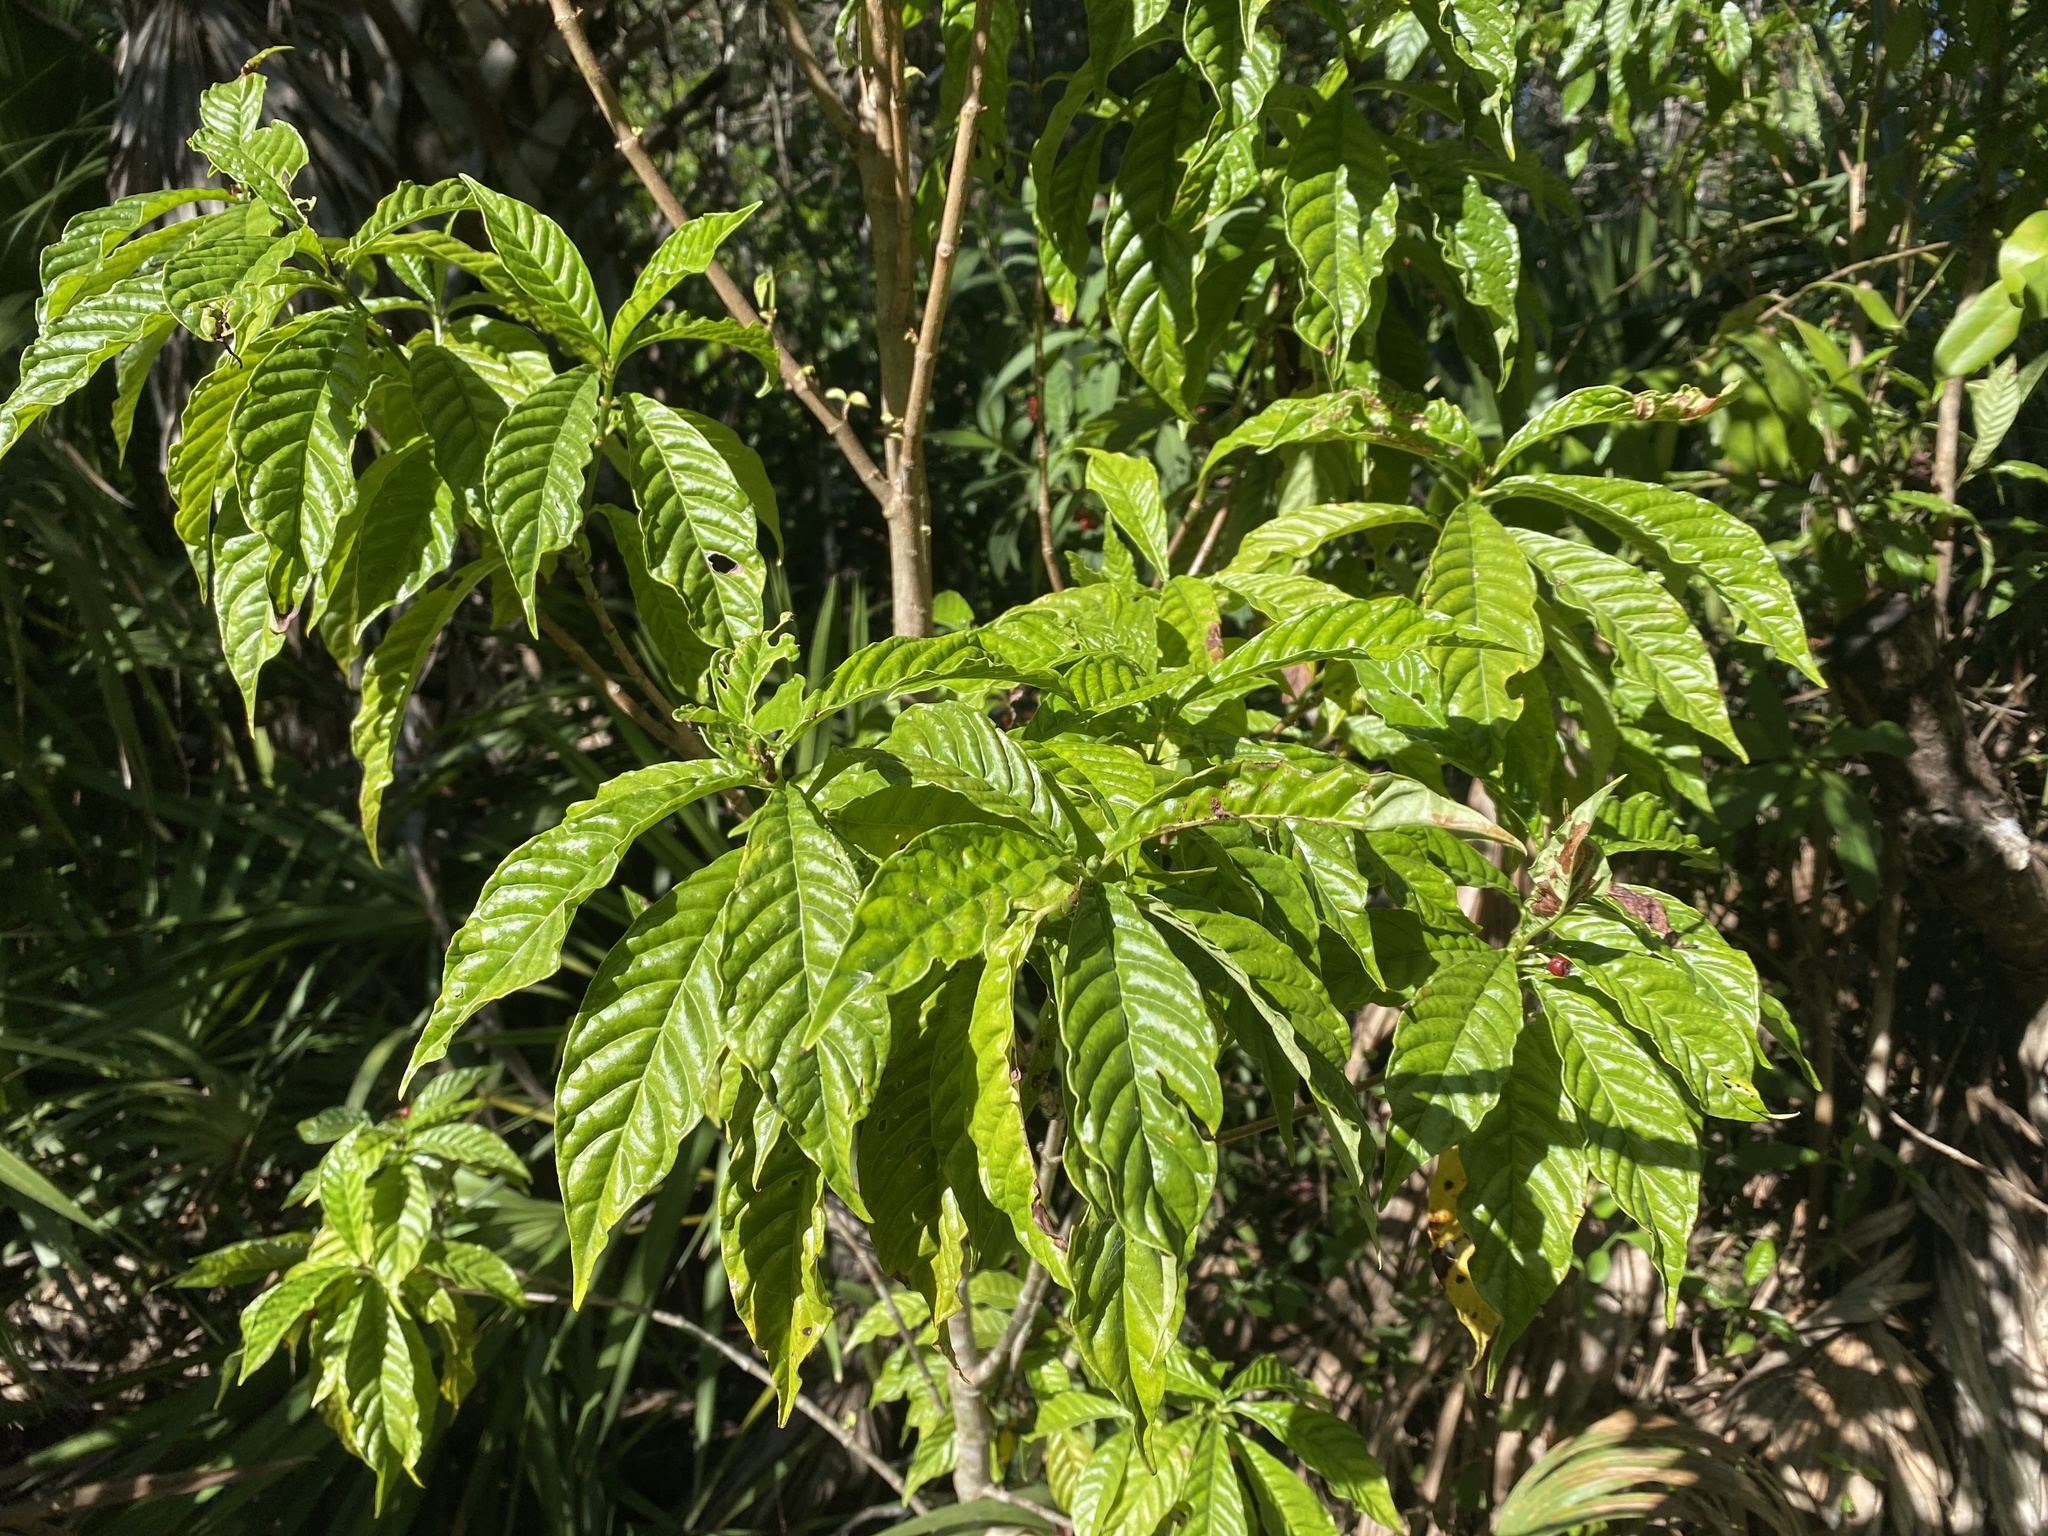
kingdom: Plantae
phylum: Tracheophyta
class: Magnoliopsida
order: Gentianales
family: Rubiaceae
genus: Psychotria
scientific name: Psychotria nervosa
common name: Bastard cankerberry
